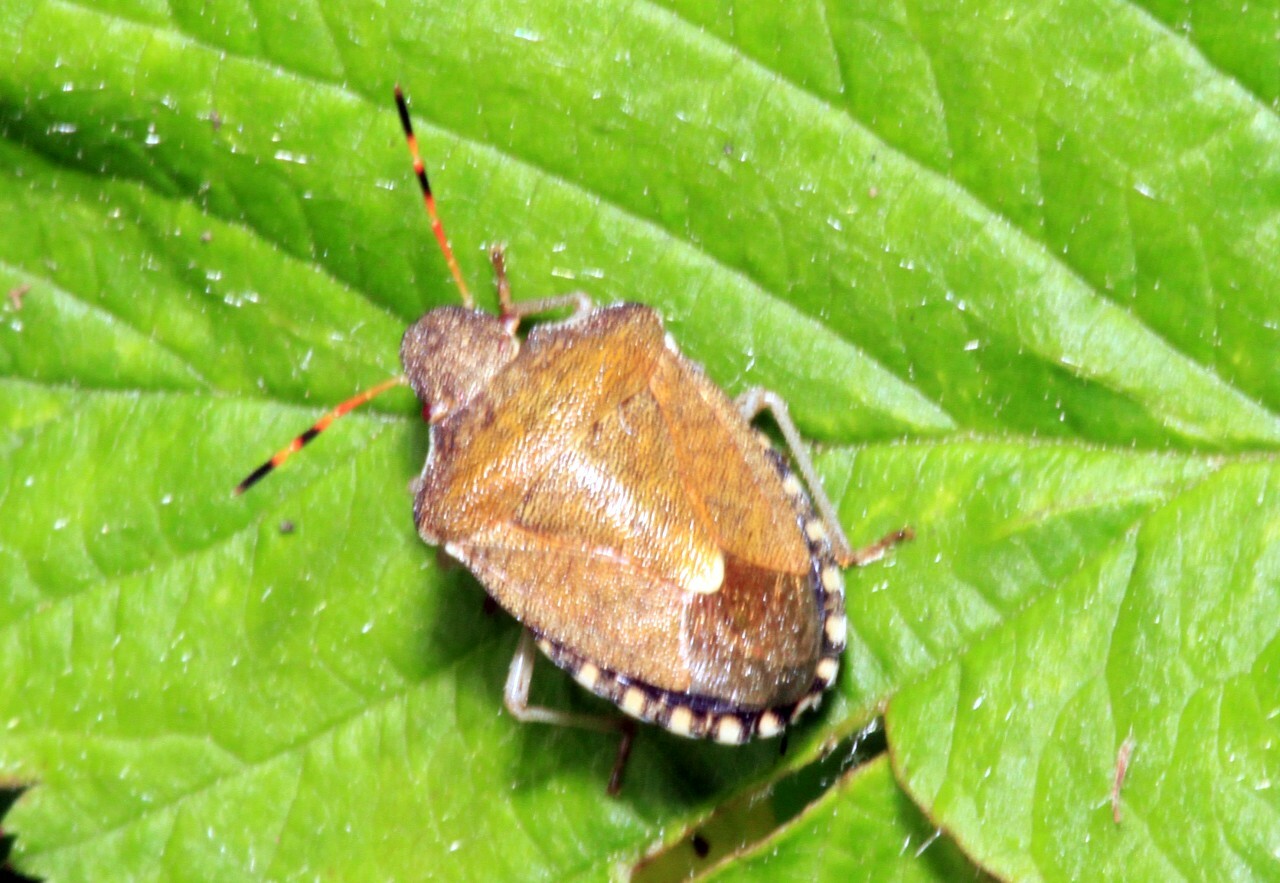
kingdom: Animalia
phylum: Arthropoda
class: Insecta
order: Hemiptera
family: Pentatomidae
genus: Holcostethus
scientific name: Holcostethus strictus
